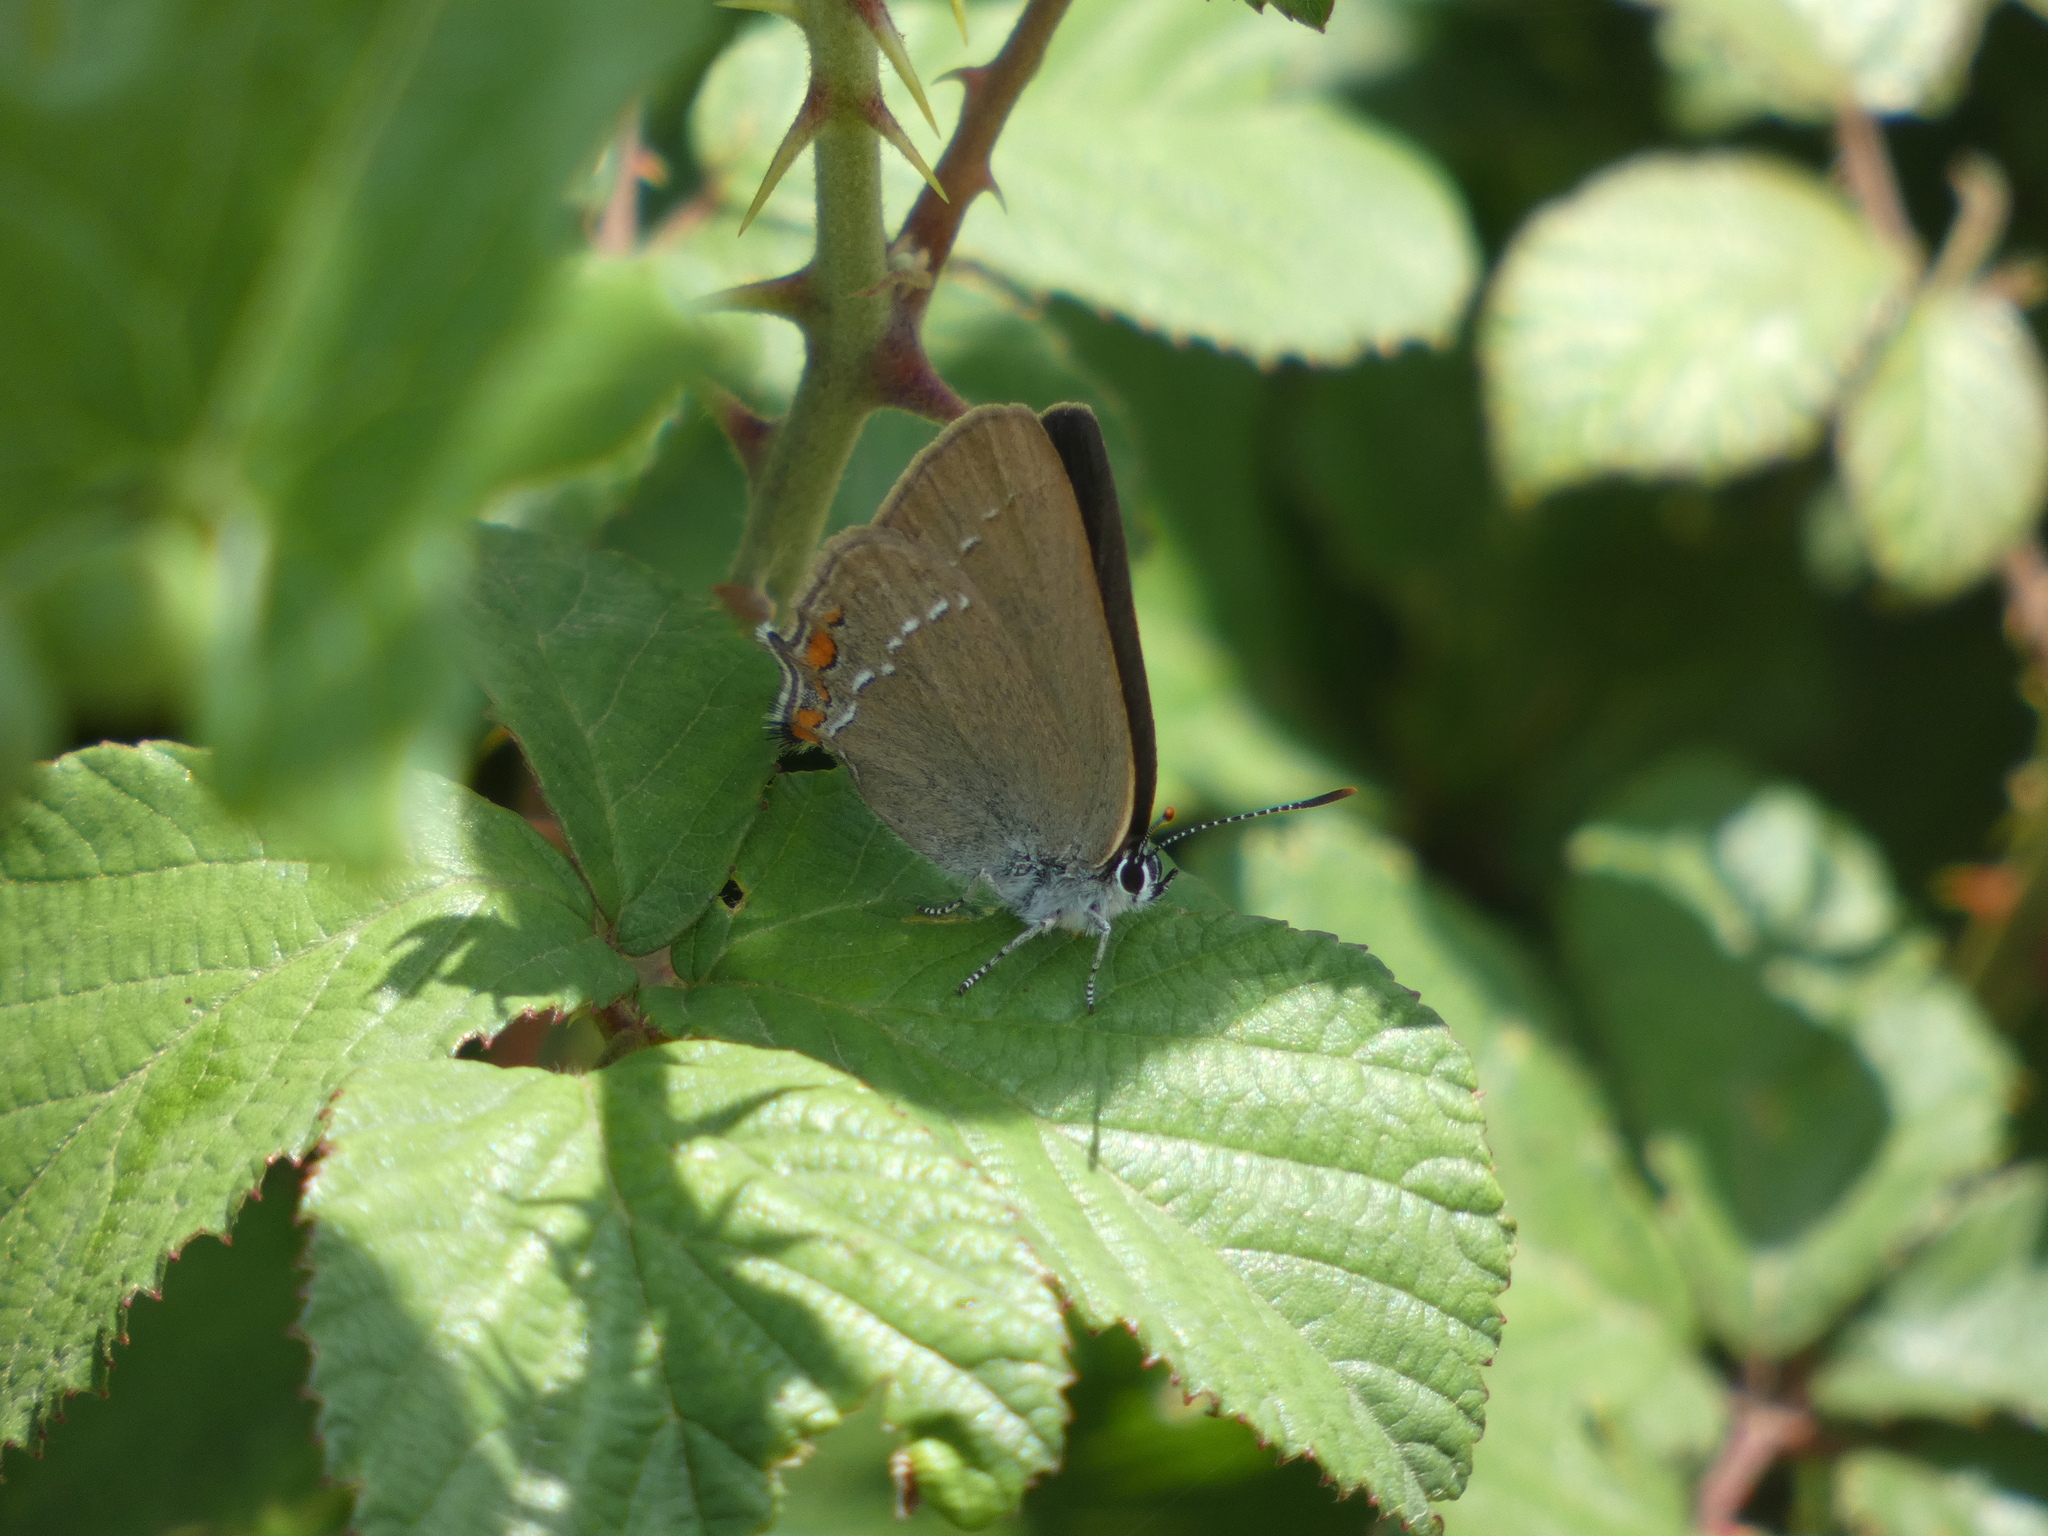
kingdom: Animalia
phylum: Arthropoda
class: Insecta
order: Lepidoptera
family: Lycaenidae
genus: Strymon
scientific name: Strymon acaciae
